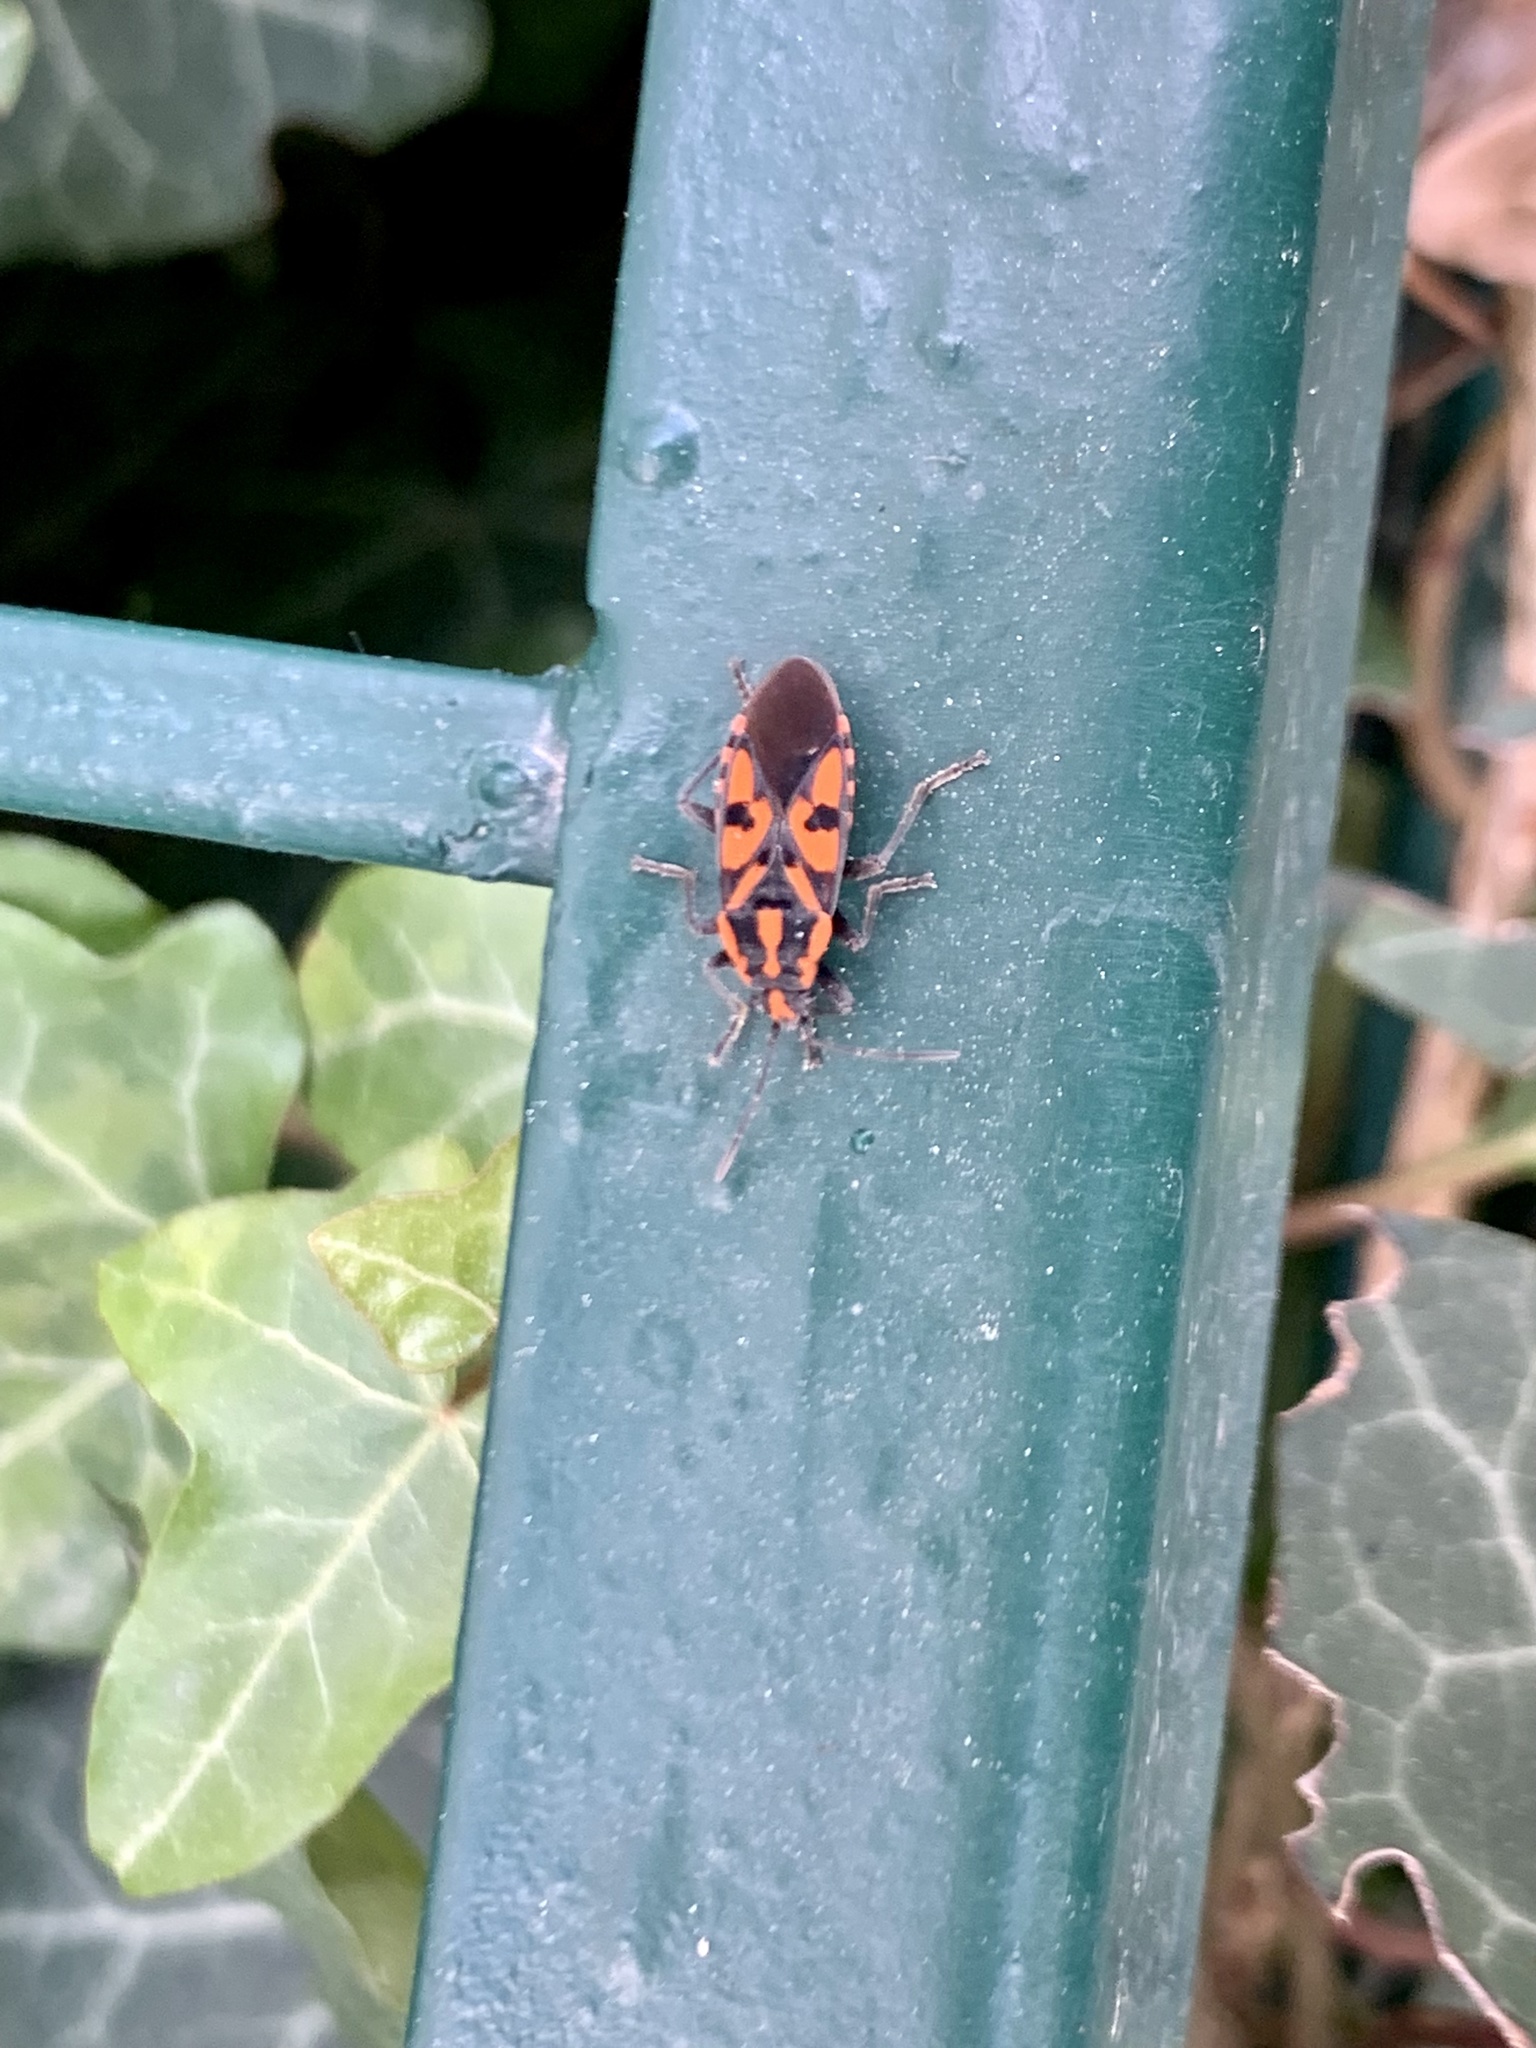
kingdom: Animalia
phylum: Arthropoda
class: Insecta
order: Hemiptera
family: Lygaeidae
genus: Spilostethus
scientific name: Spilostethus saxatilis
